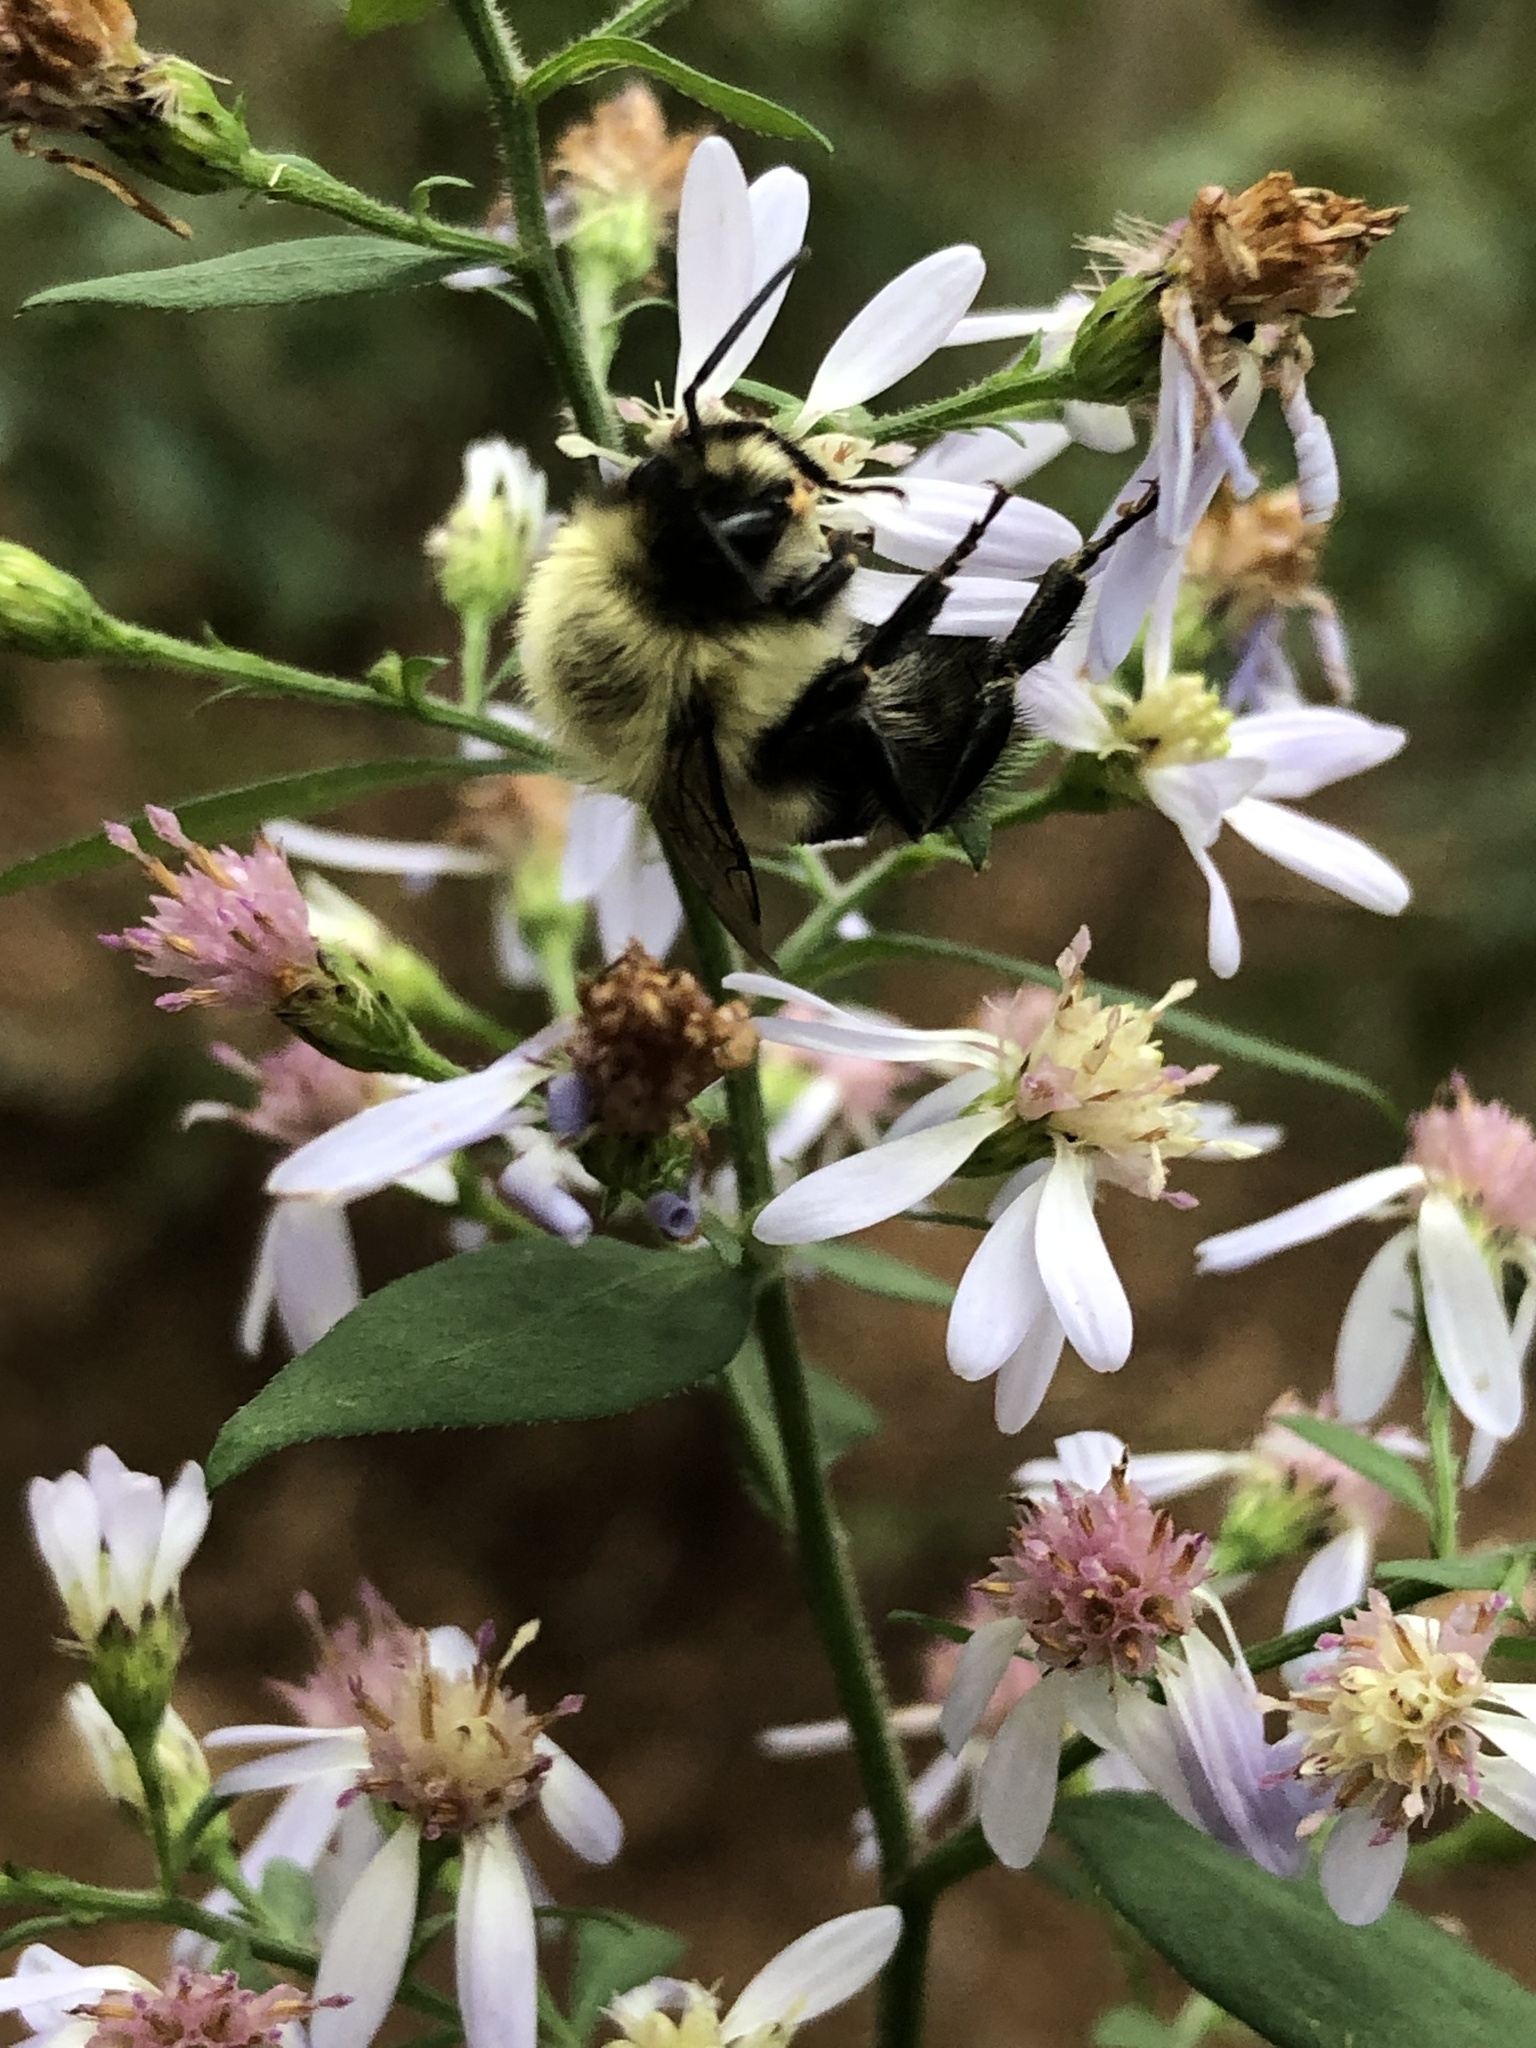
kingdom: Animalia
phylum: Arthropoda
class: Insecta
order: Hymenoptera
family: Apidae
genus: Bombus
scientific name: Bombus impatiens
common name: Common eastern bumble bee
